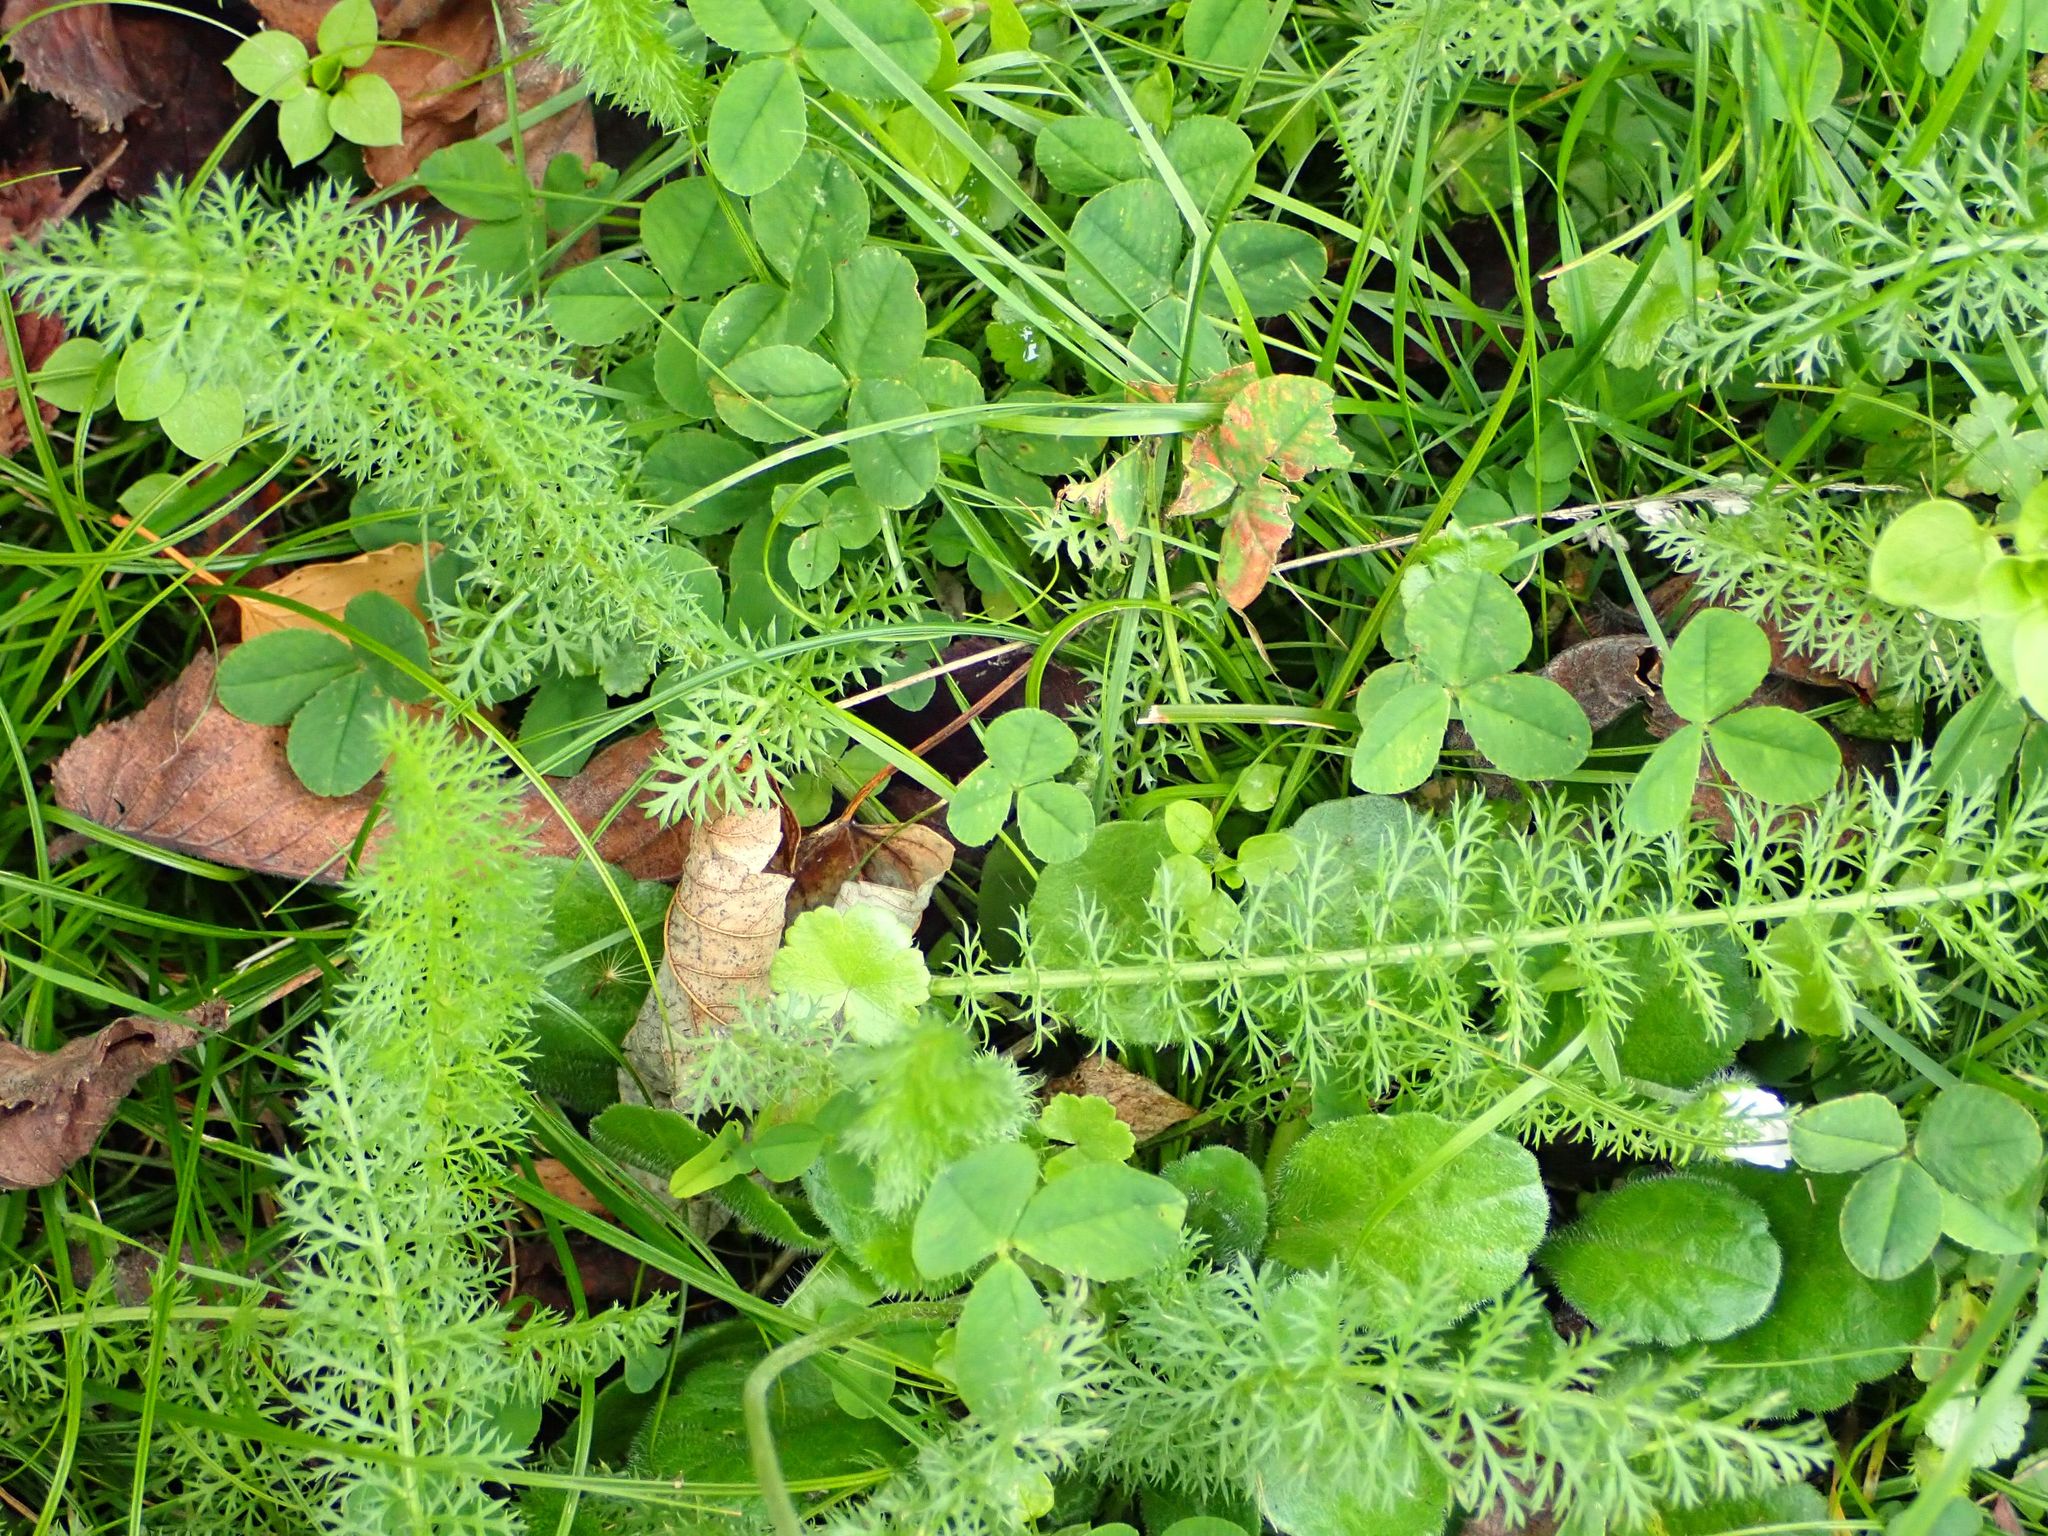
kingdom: Plantae
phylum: Tracheophyta
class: Magnoliopsida
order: Asterales
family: Asteraceae
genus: Achillea
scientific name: Achillea millefolium
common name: Yarrow
